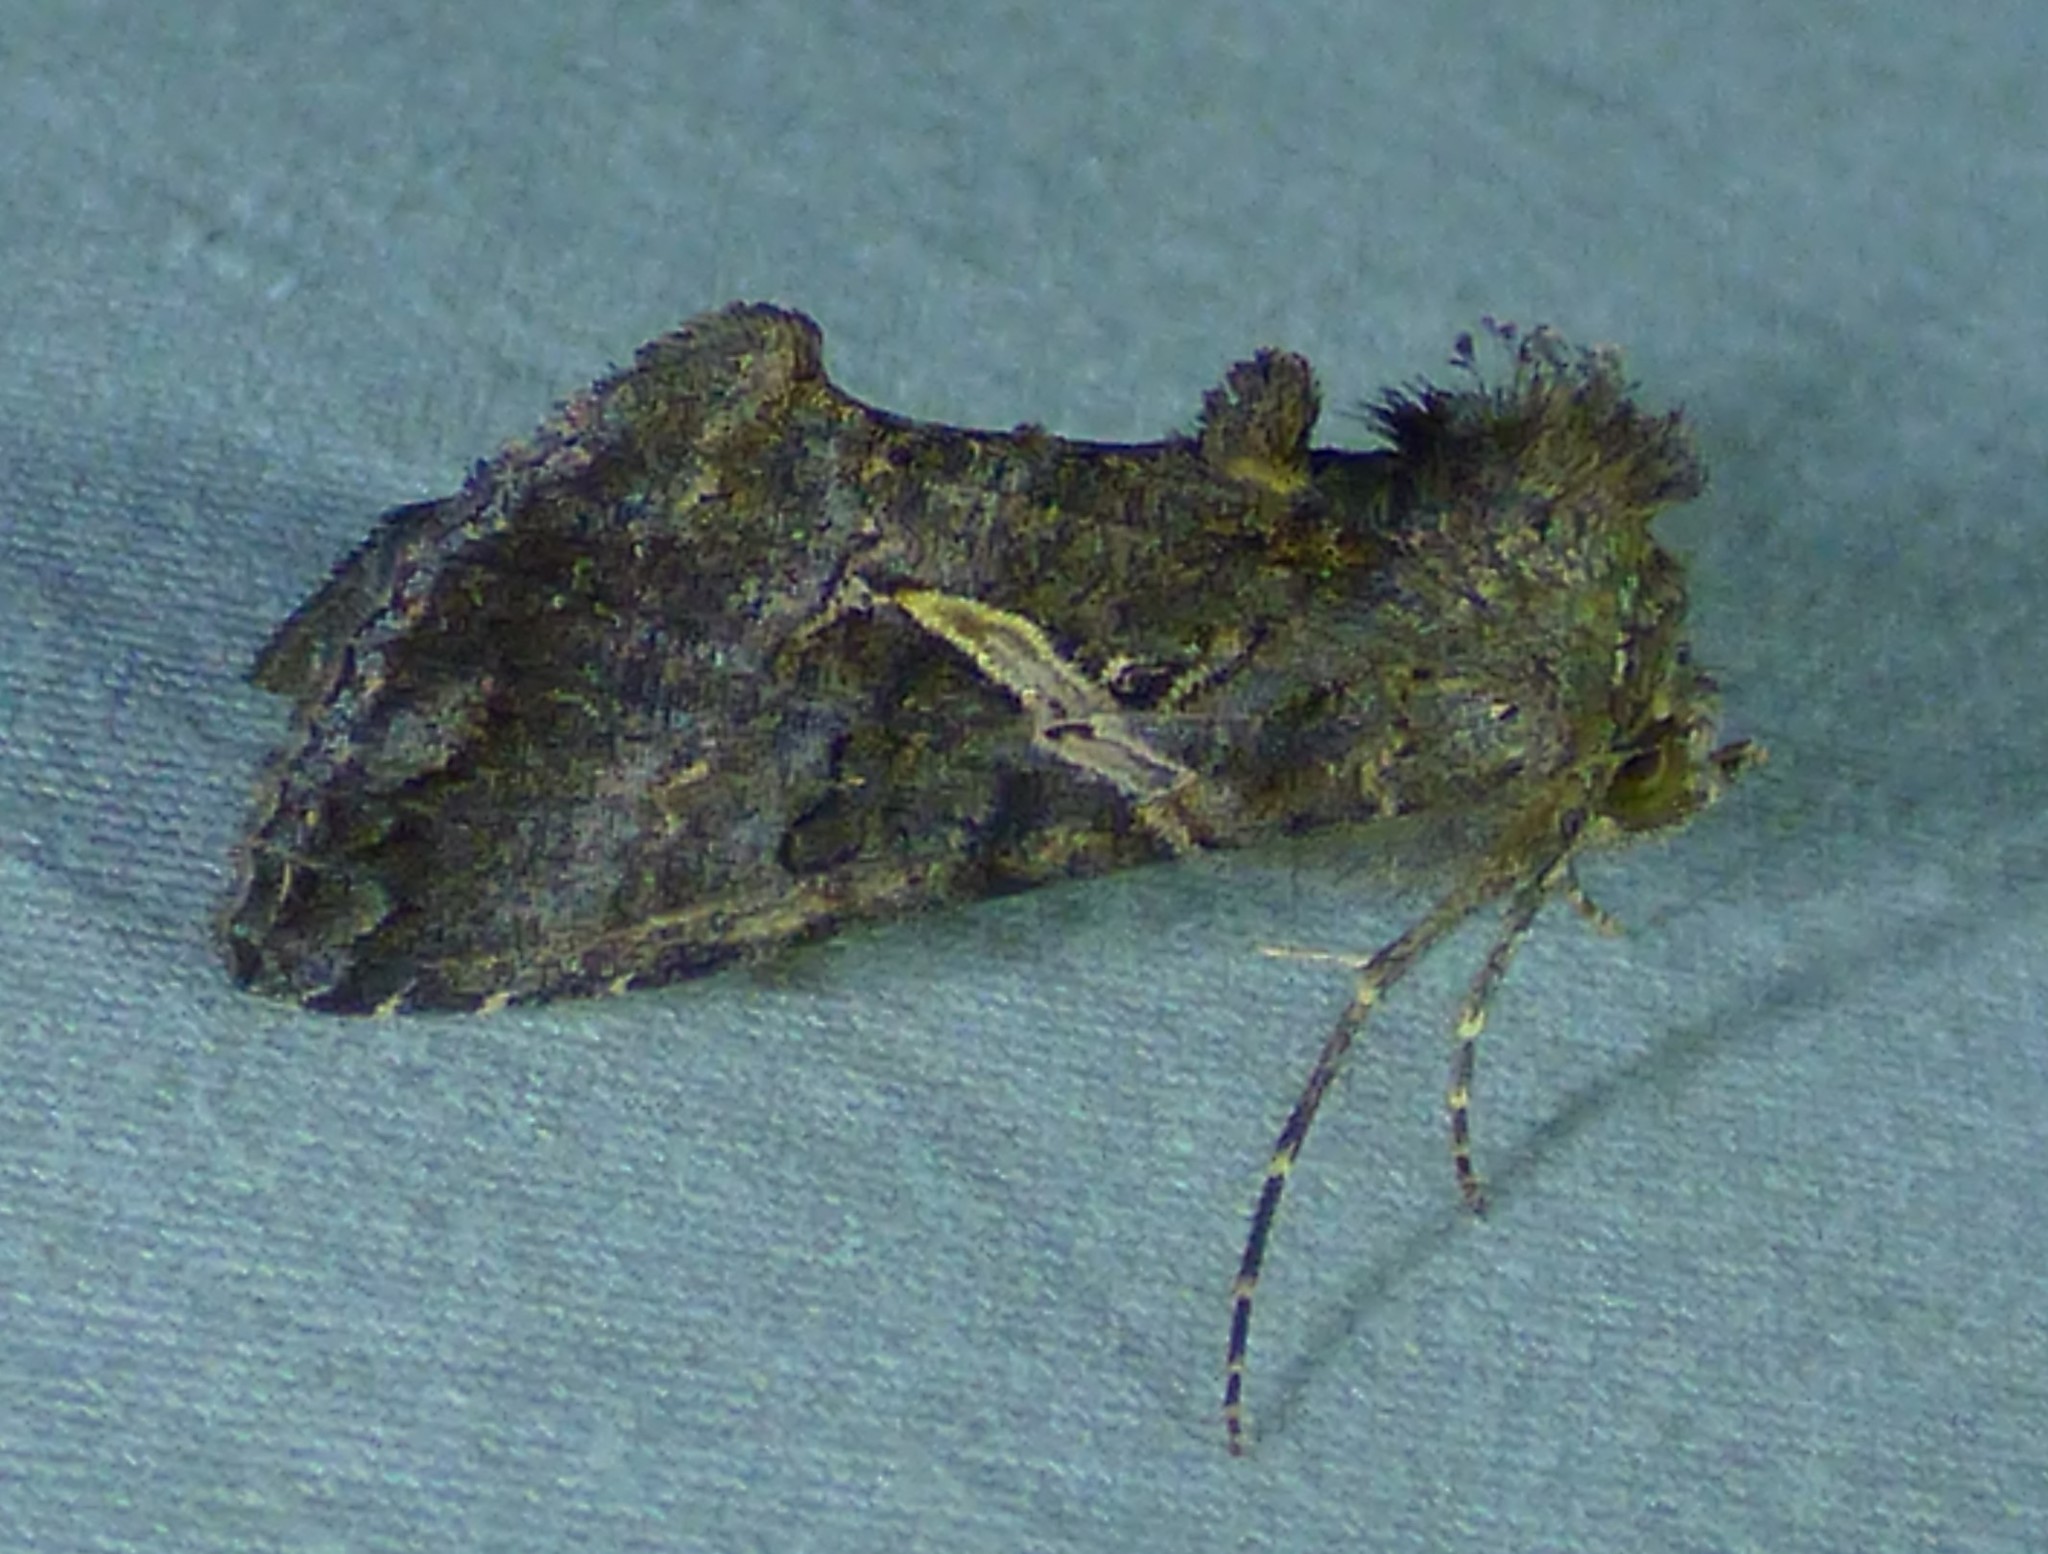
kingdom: Animalia
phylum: Arthropoda
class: Insecta
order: Lepidoptera
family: Noctuidae
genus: Ctenoplusia
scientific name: Ctenoplusia oxygramma
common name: Sharp-stigma looper moth
